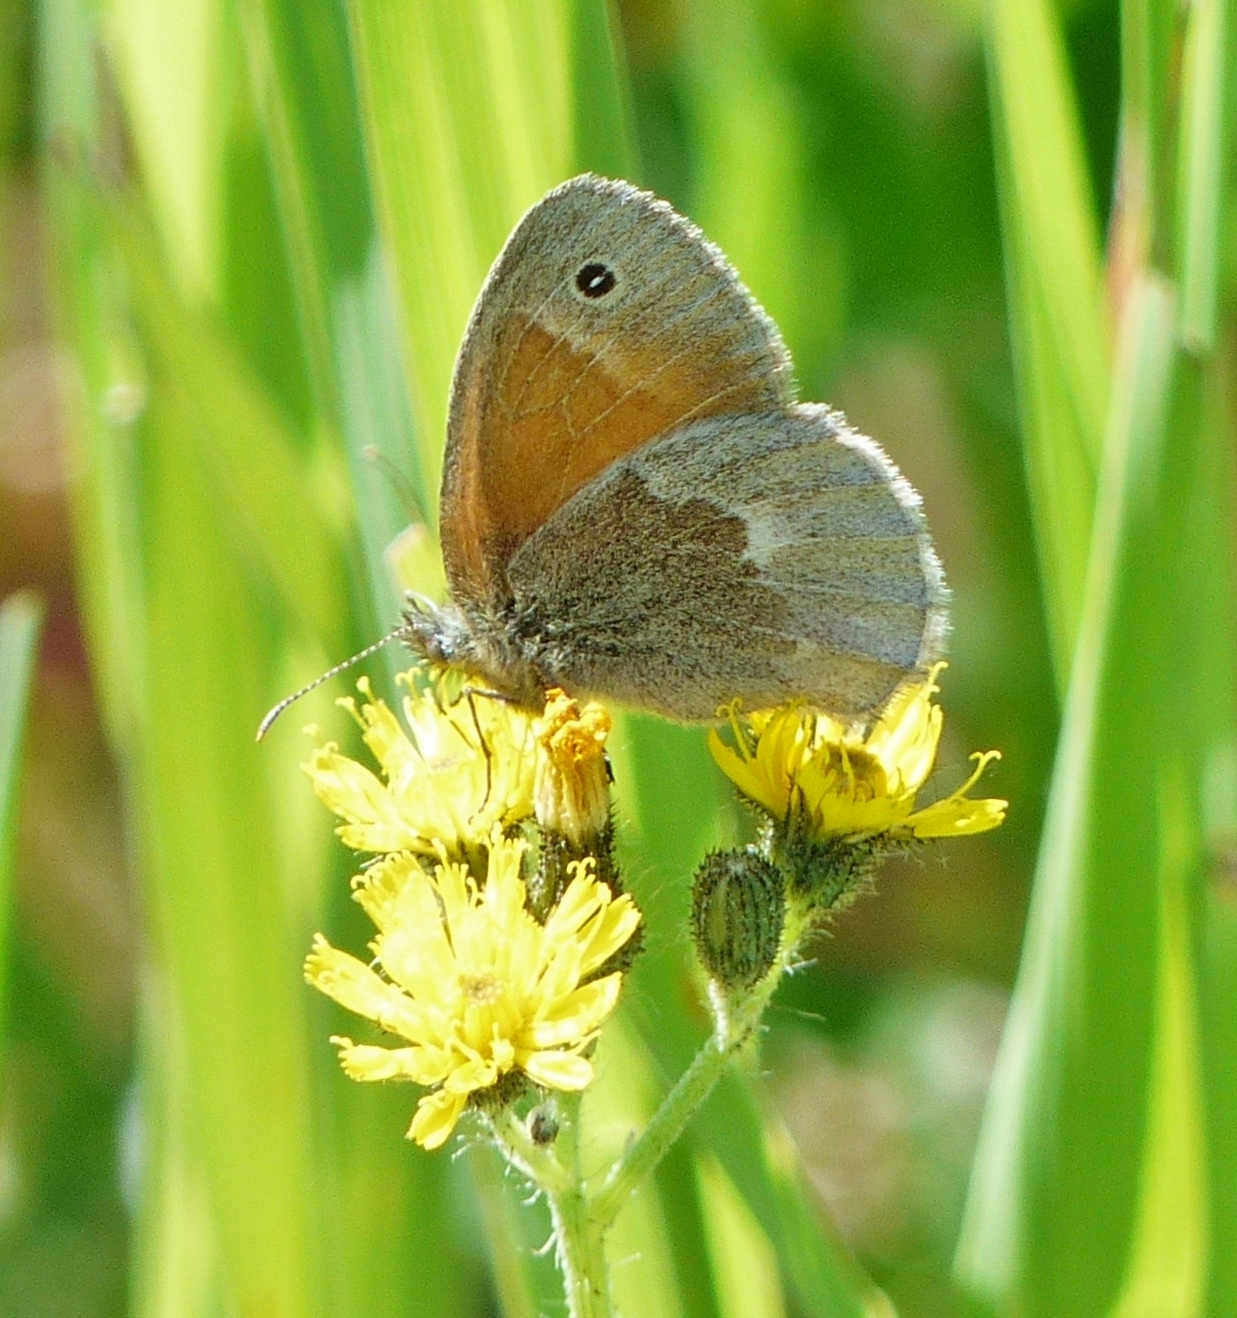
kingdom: Animalia
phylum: Arthropoda
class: Insecta
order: Lepidoptera
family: Nymphalidae
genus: Coenonympha
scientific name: Coenonympha california
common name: Common ringlet
